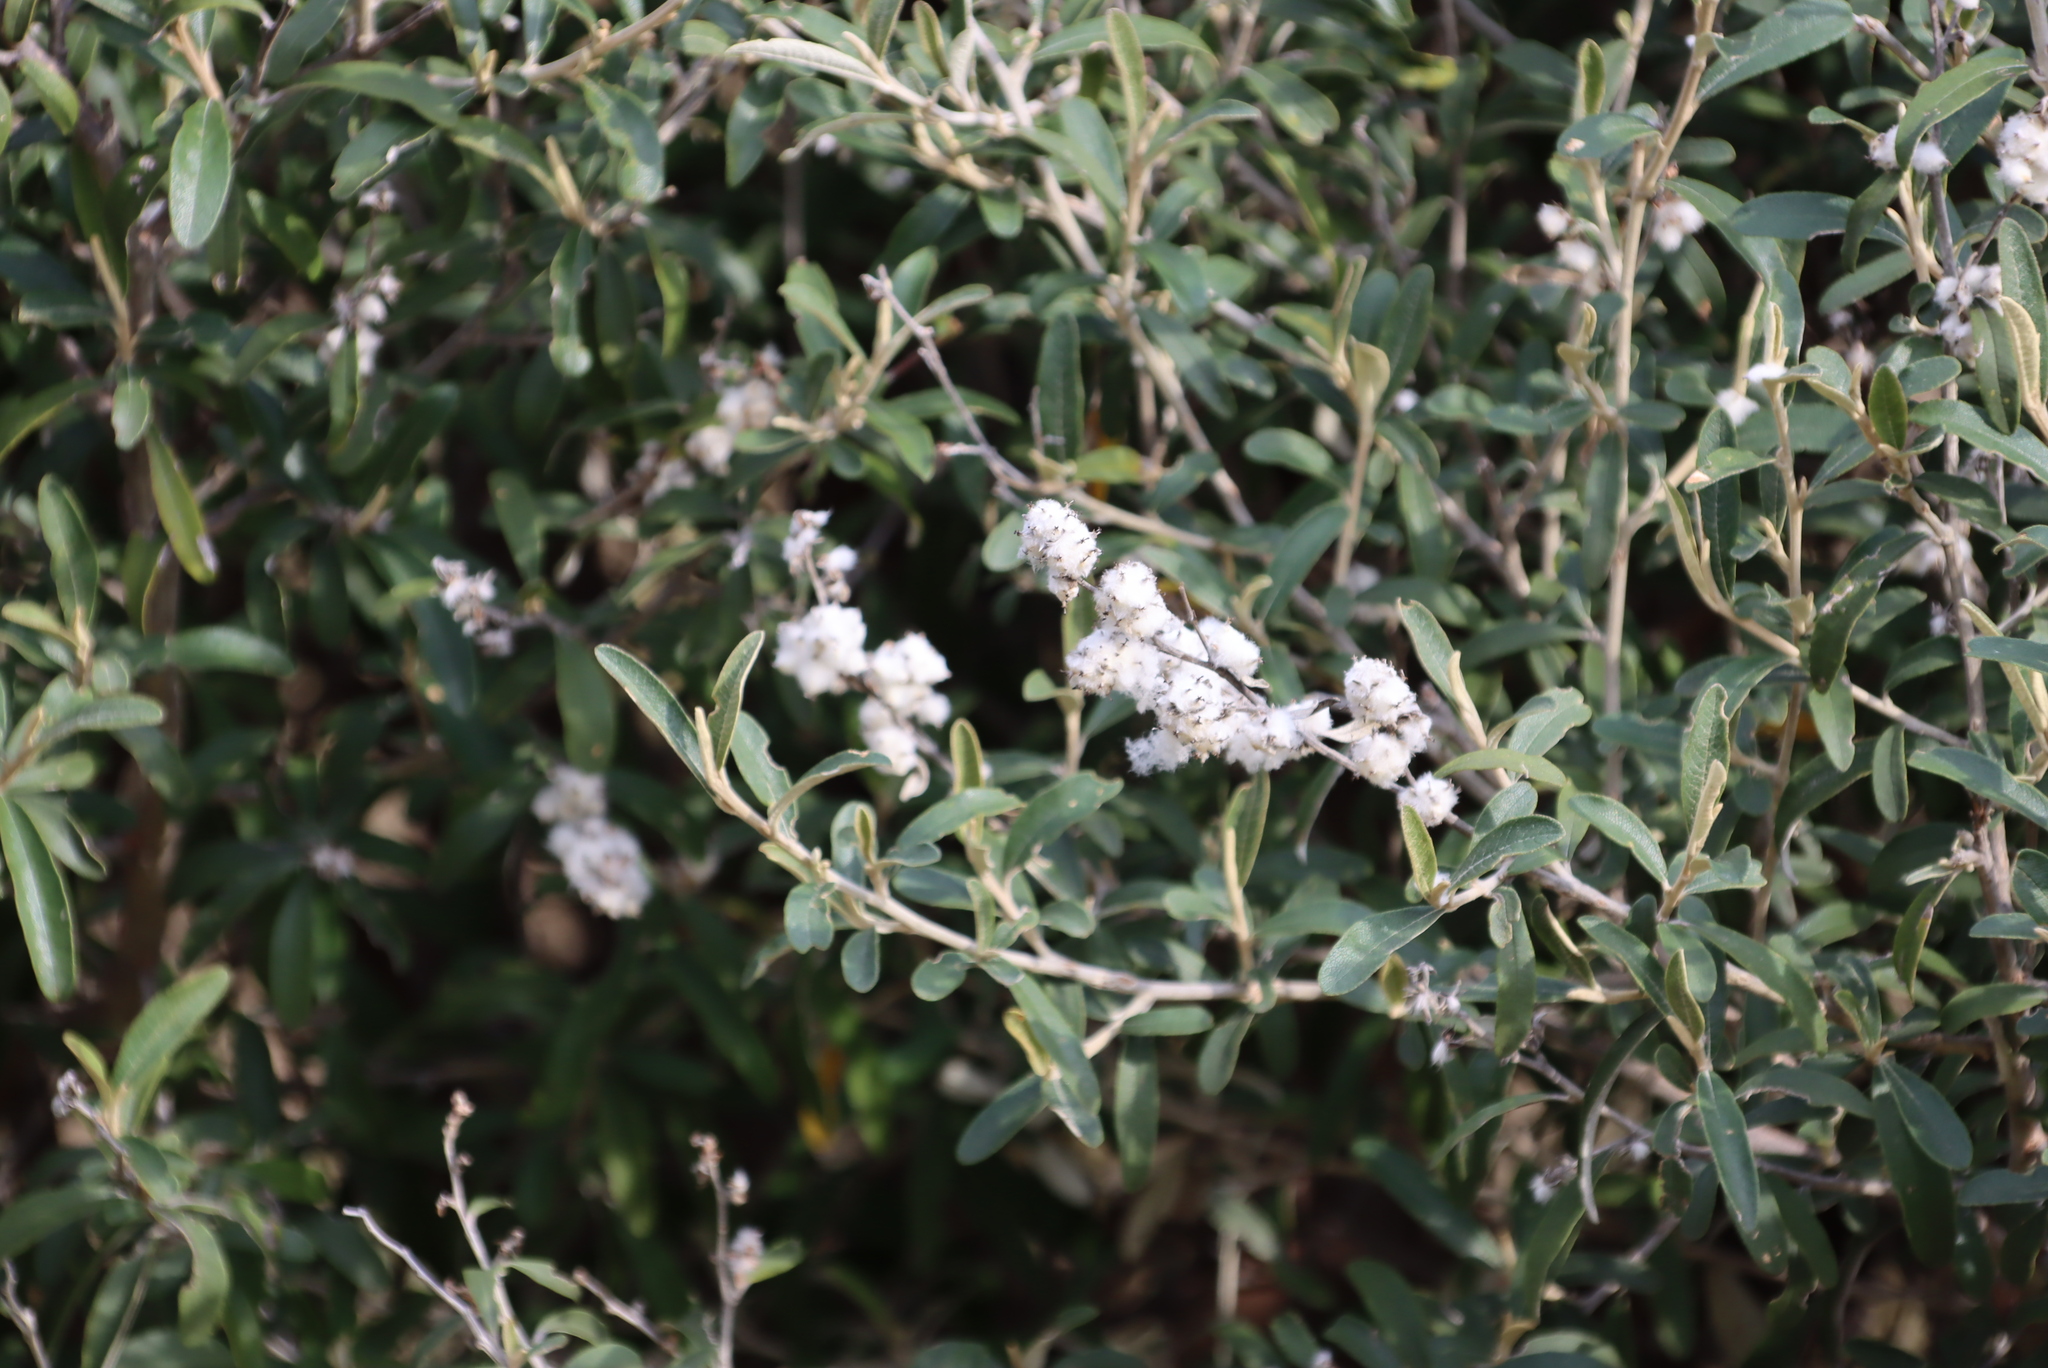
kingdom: Plantae
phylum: Tracheophyta
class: Magnoliopsida
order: Asterales
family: Asteraceae
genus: Tarchonanthus
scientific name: Tarchonanthus littoralis
